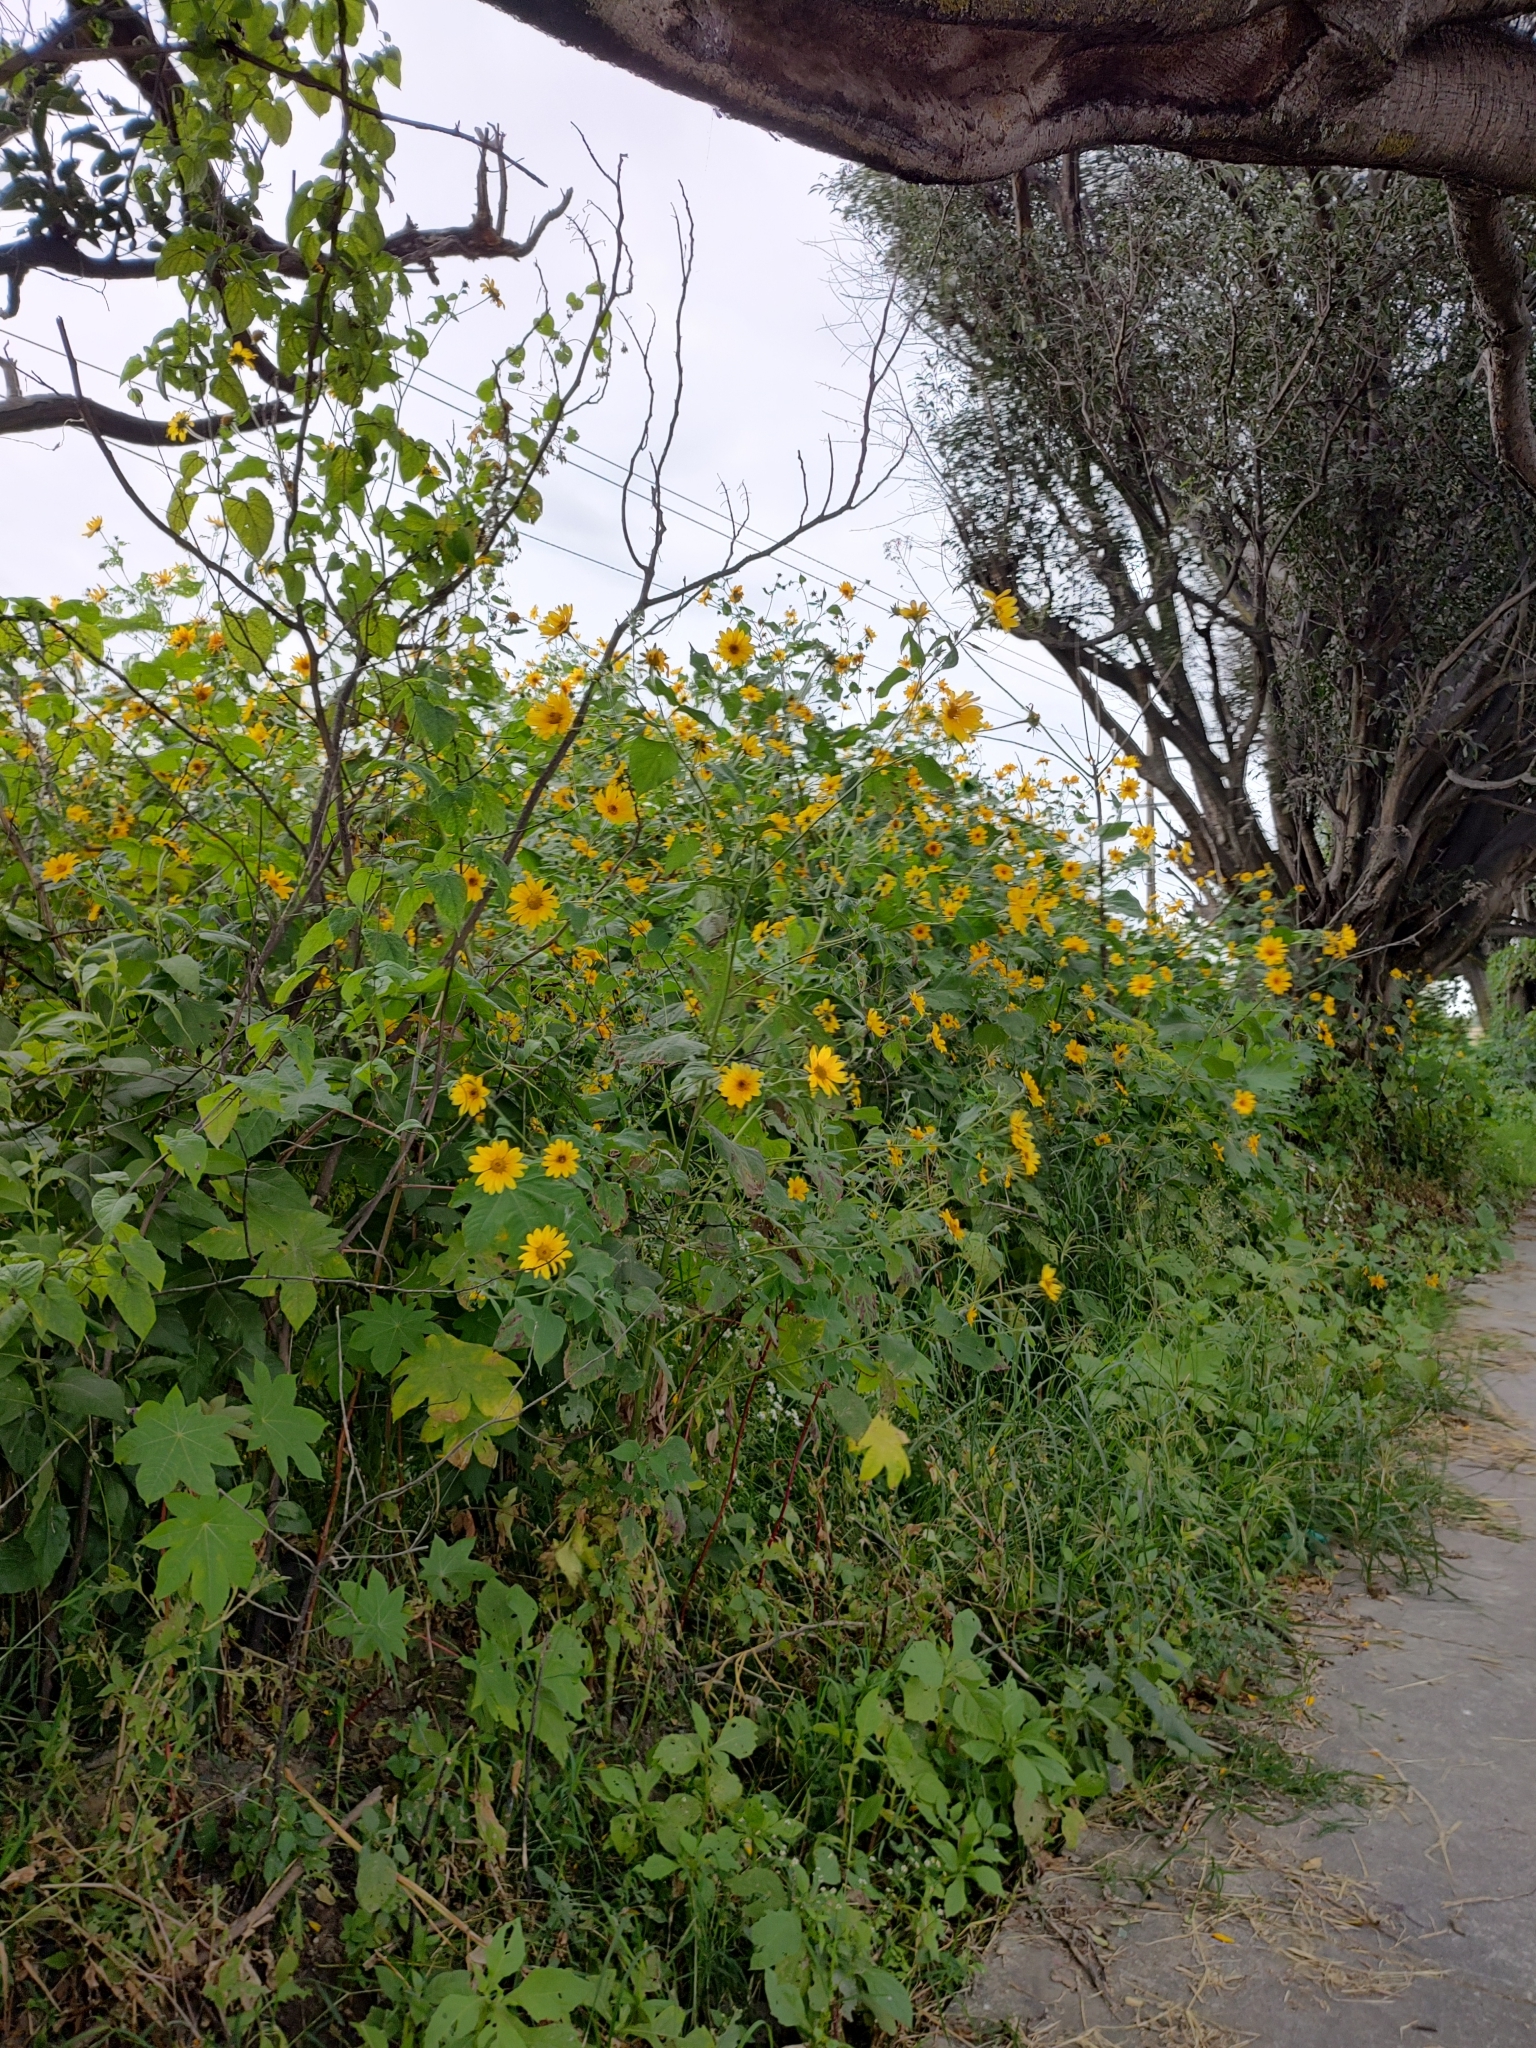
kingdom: Plantae
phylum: Tracheophyta
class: Magnoliopsida
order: Asterales
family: Asteraceae
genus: Tithonia
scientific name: Tithonia tubaeformis
